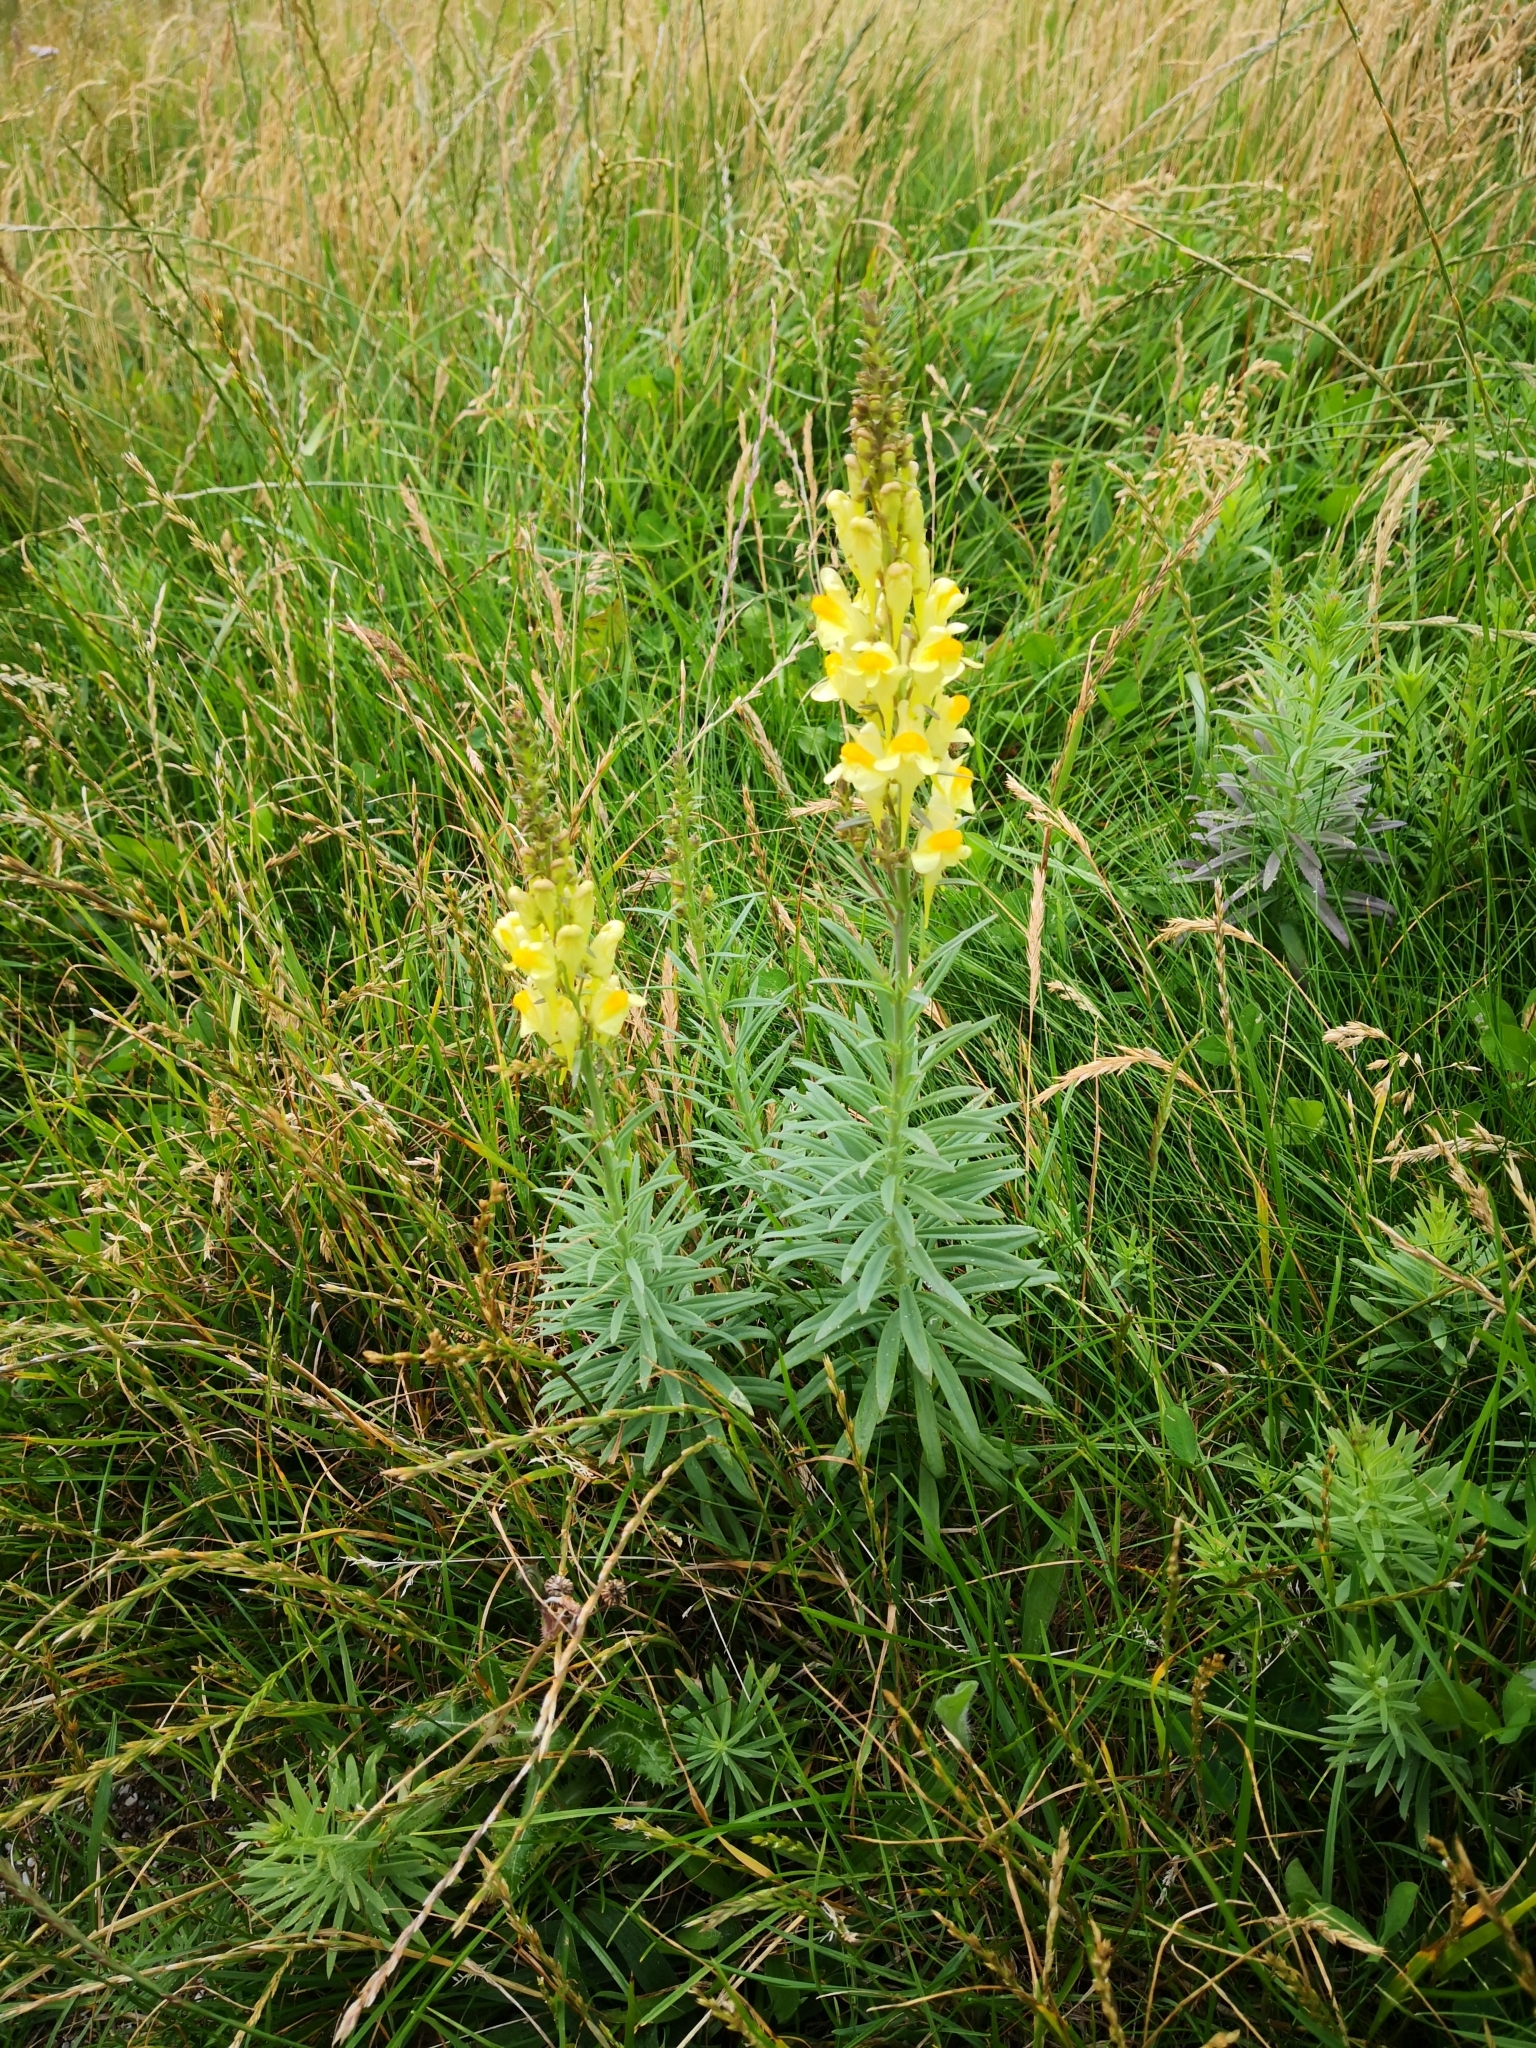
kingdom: Plantae
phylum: Tracheophyta
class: Magnoliopsida
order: Lamiales
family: Plantaginaceae
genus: Linaria
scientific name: Linaria vulgaris
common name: Butter and eggs
